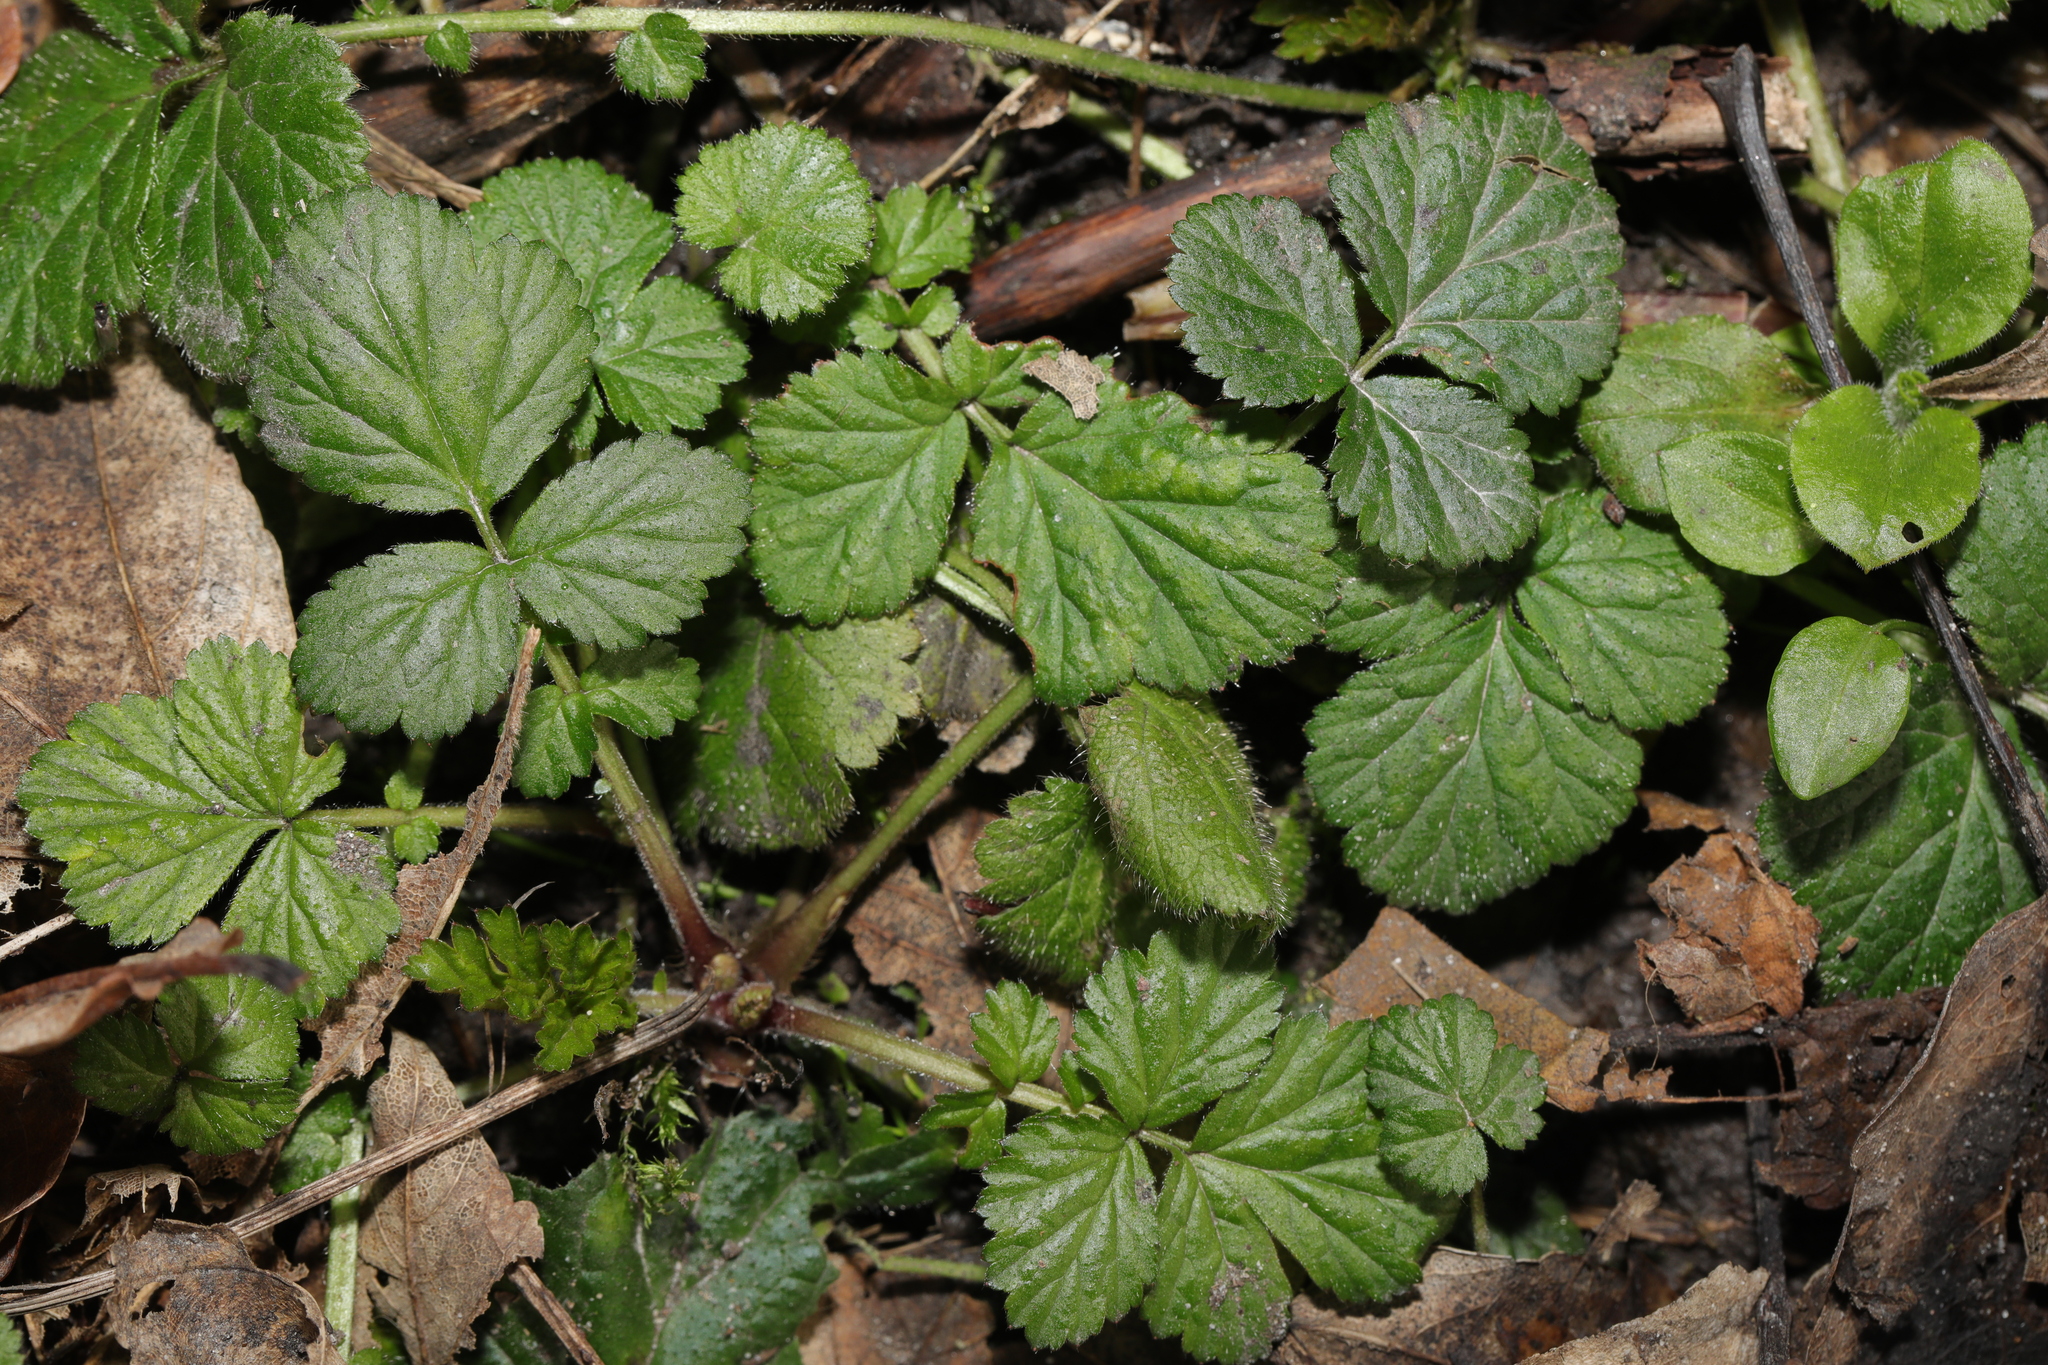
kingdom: Plantae
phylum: Tracheophyta
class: Magnoliopsida
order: Rosales
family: Rosaceae
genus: Geum
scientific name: Geum urbanum
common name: Wood avens
